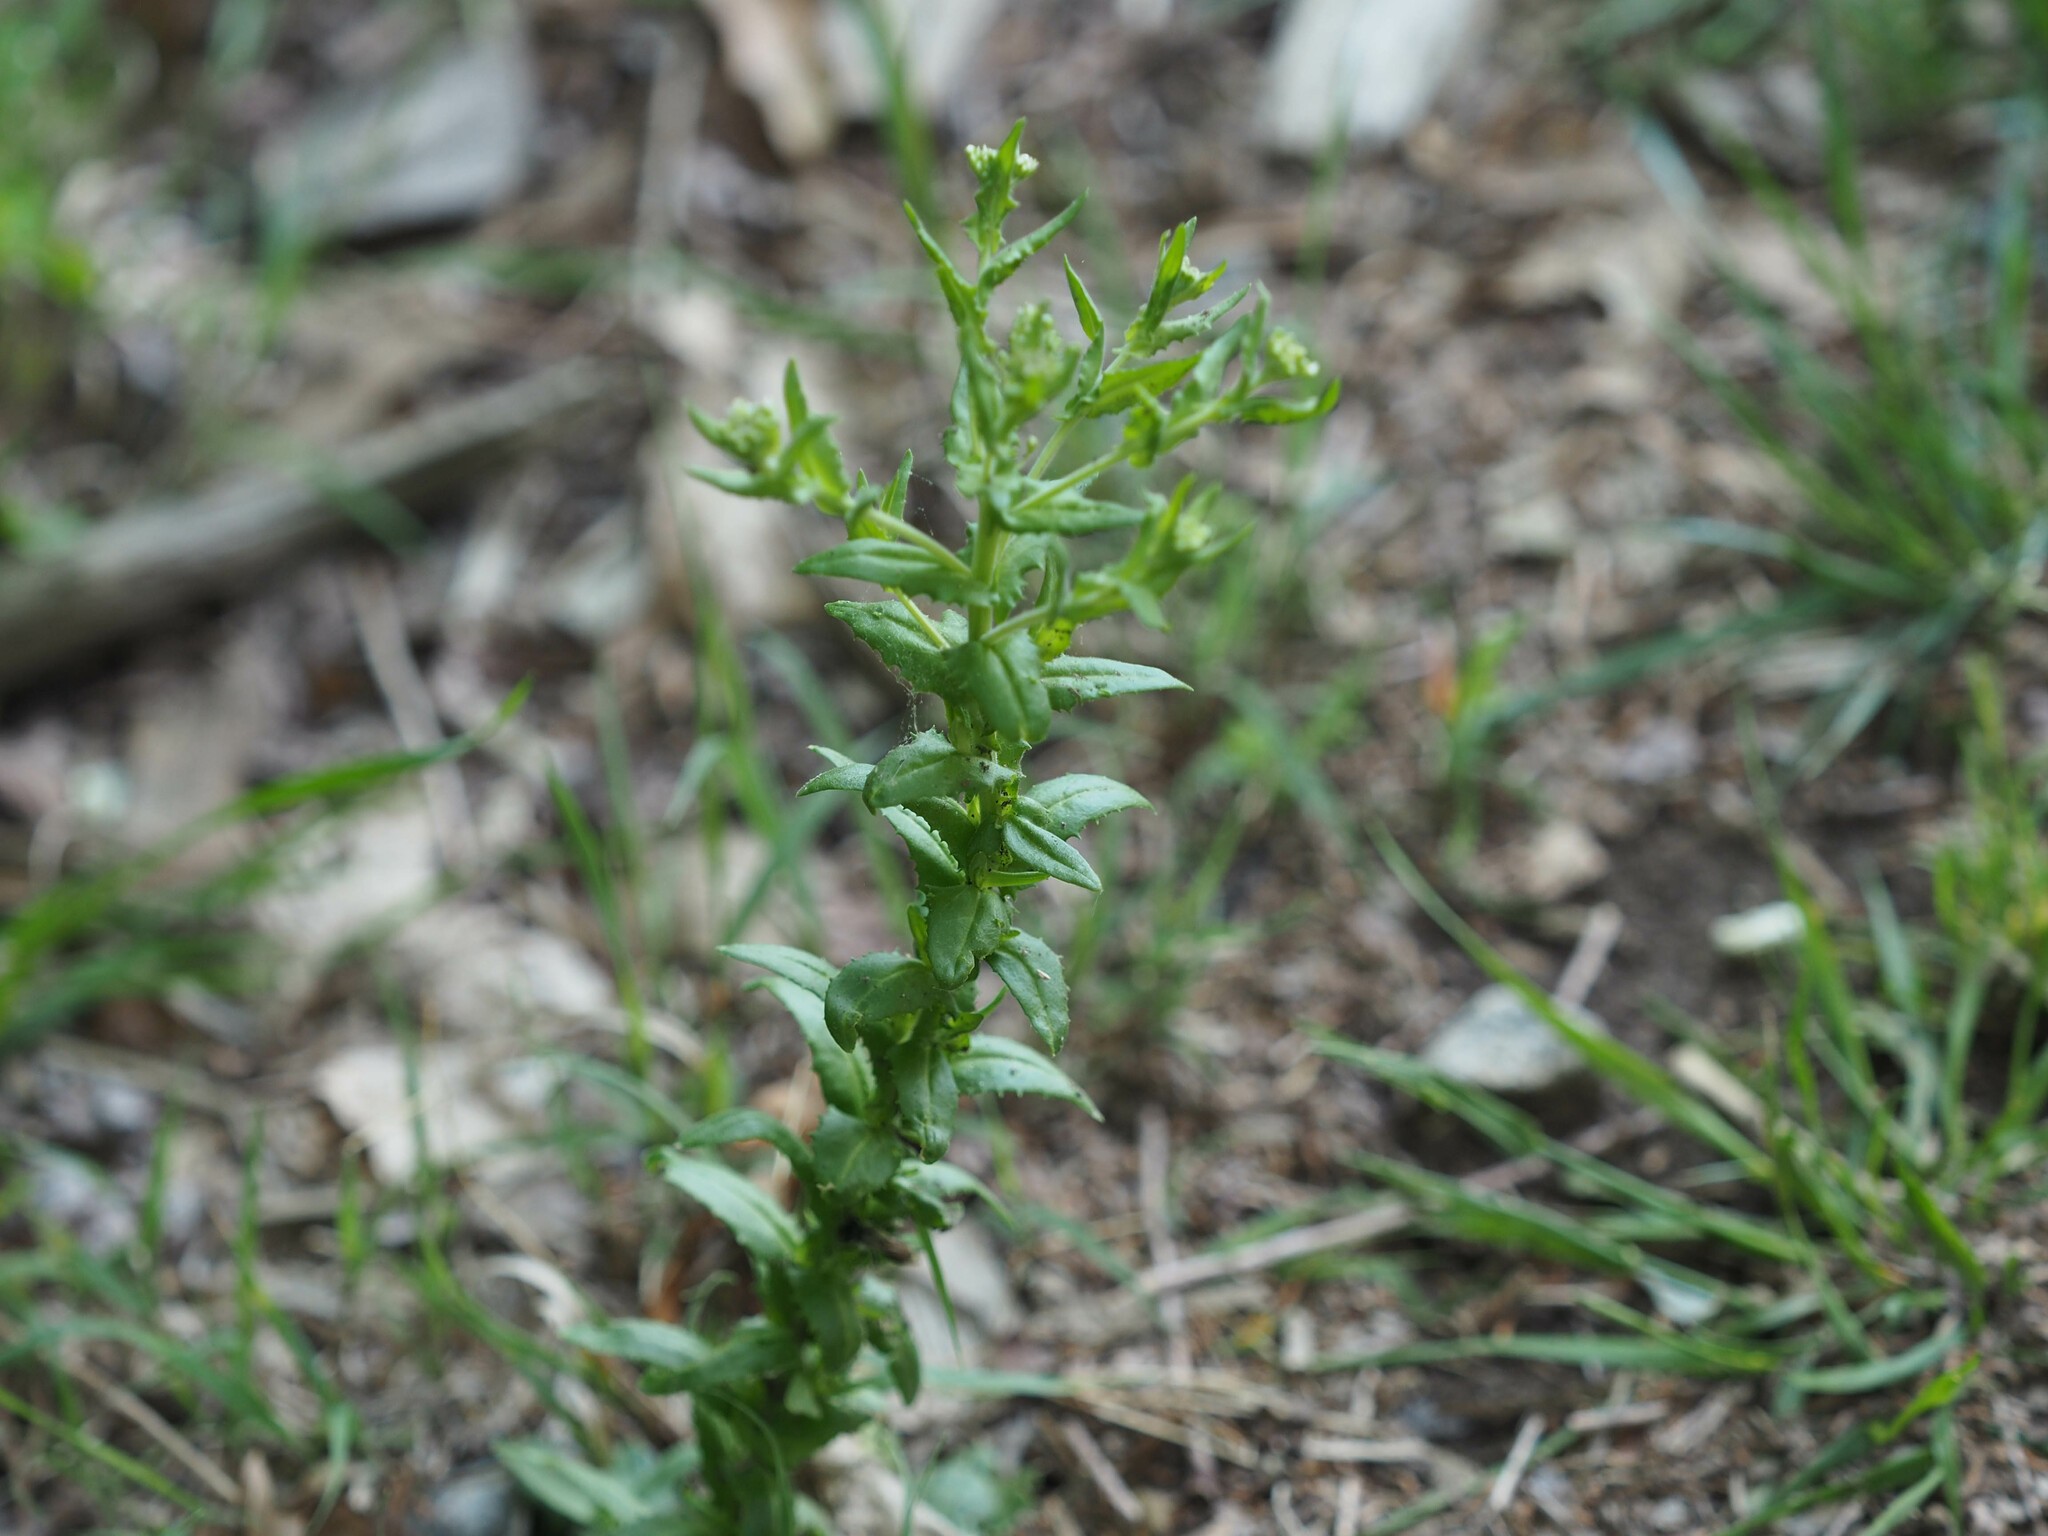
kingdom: Plantae
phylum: Tracheophyta
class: Magnoliopsida
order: Brassicales
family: Brassicaceae
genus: Lepidium
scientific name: Lepidium campestre
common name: Field pepperwort
